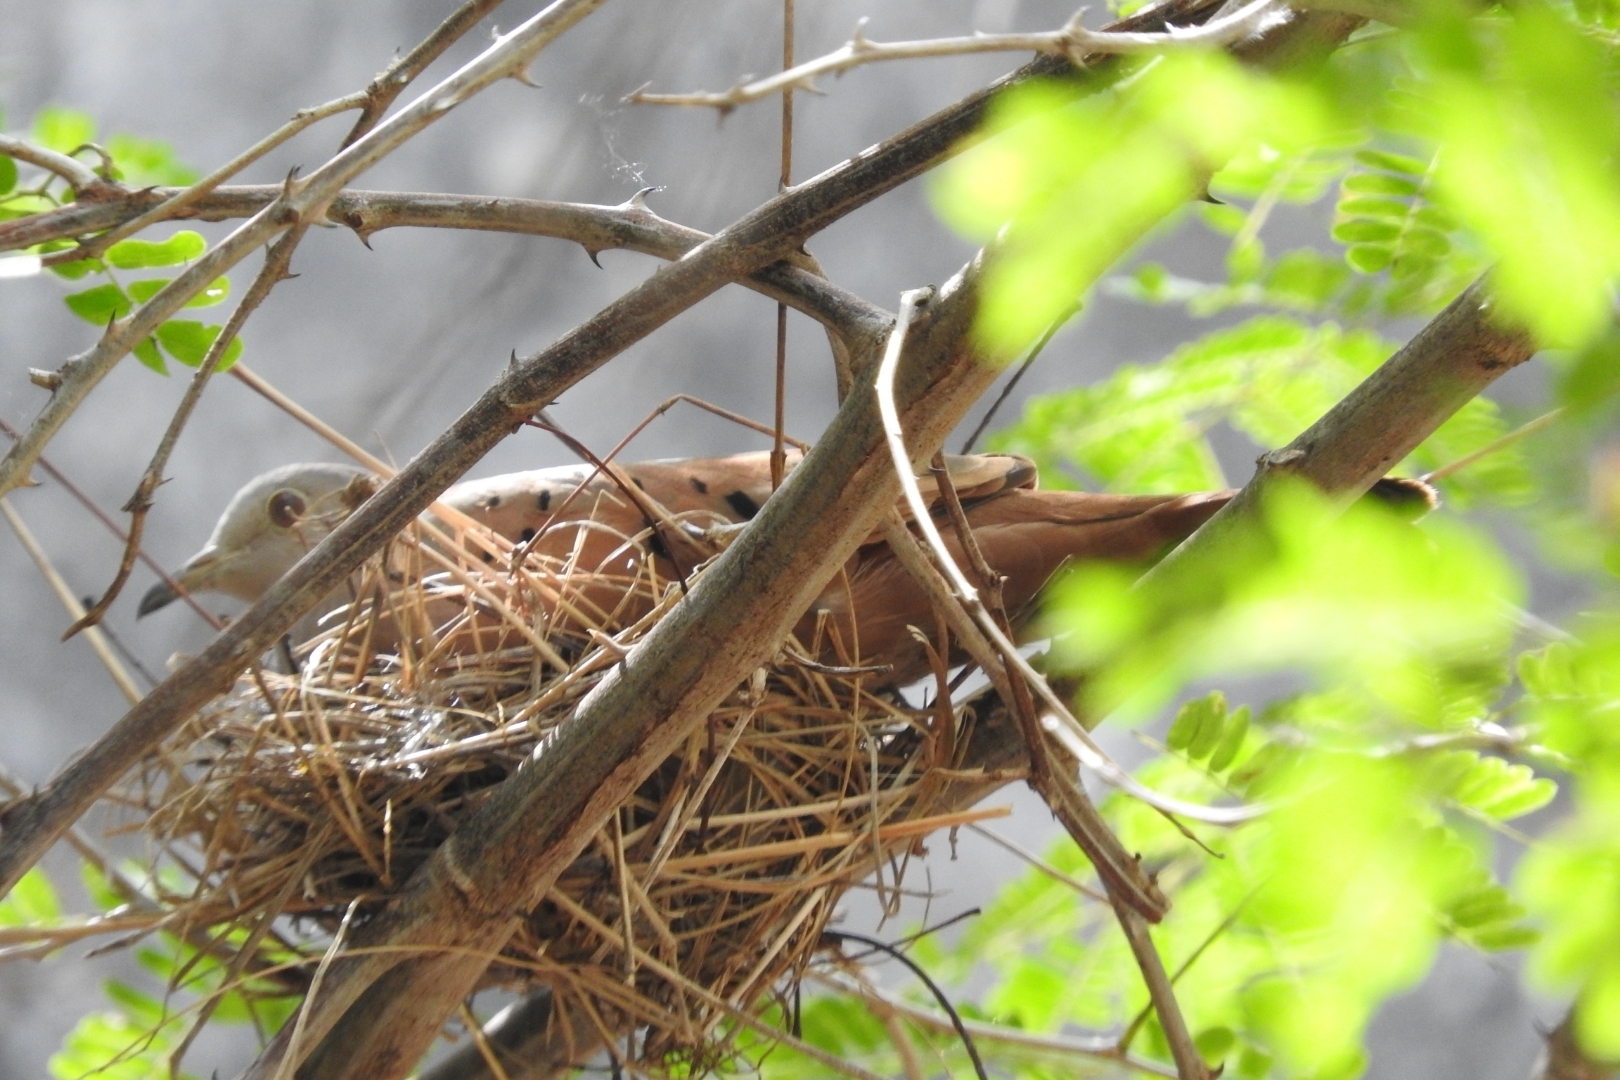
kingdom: Animalia
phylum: Chordata
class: Aves
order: Columbiformes
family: Columbidae
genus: Columbina
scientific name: Columbina talpacoti
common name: Ruddy ground dove
